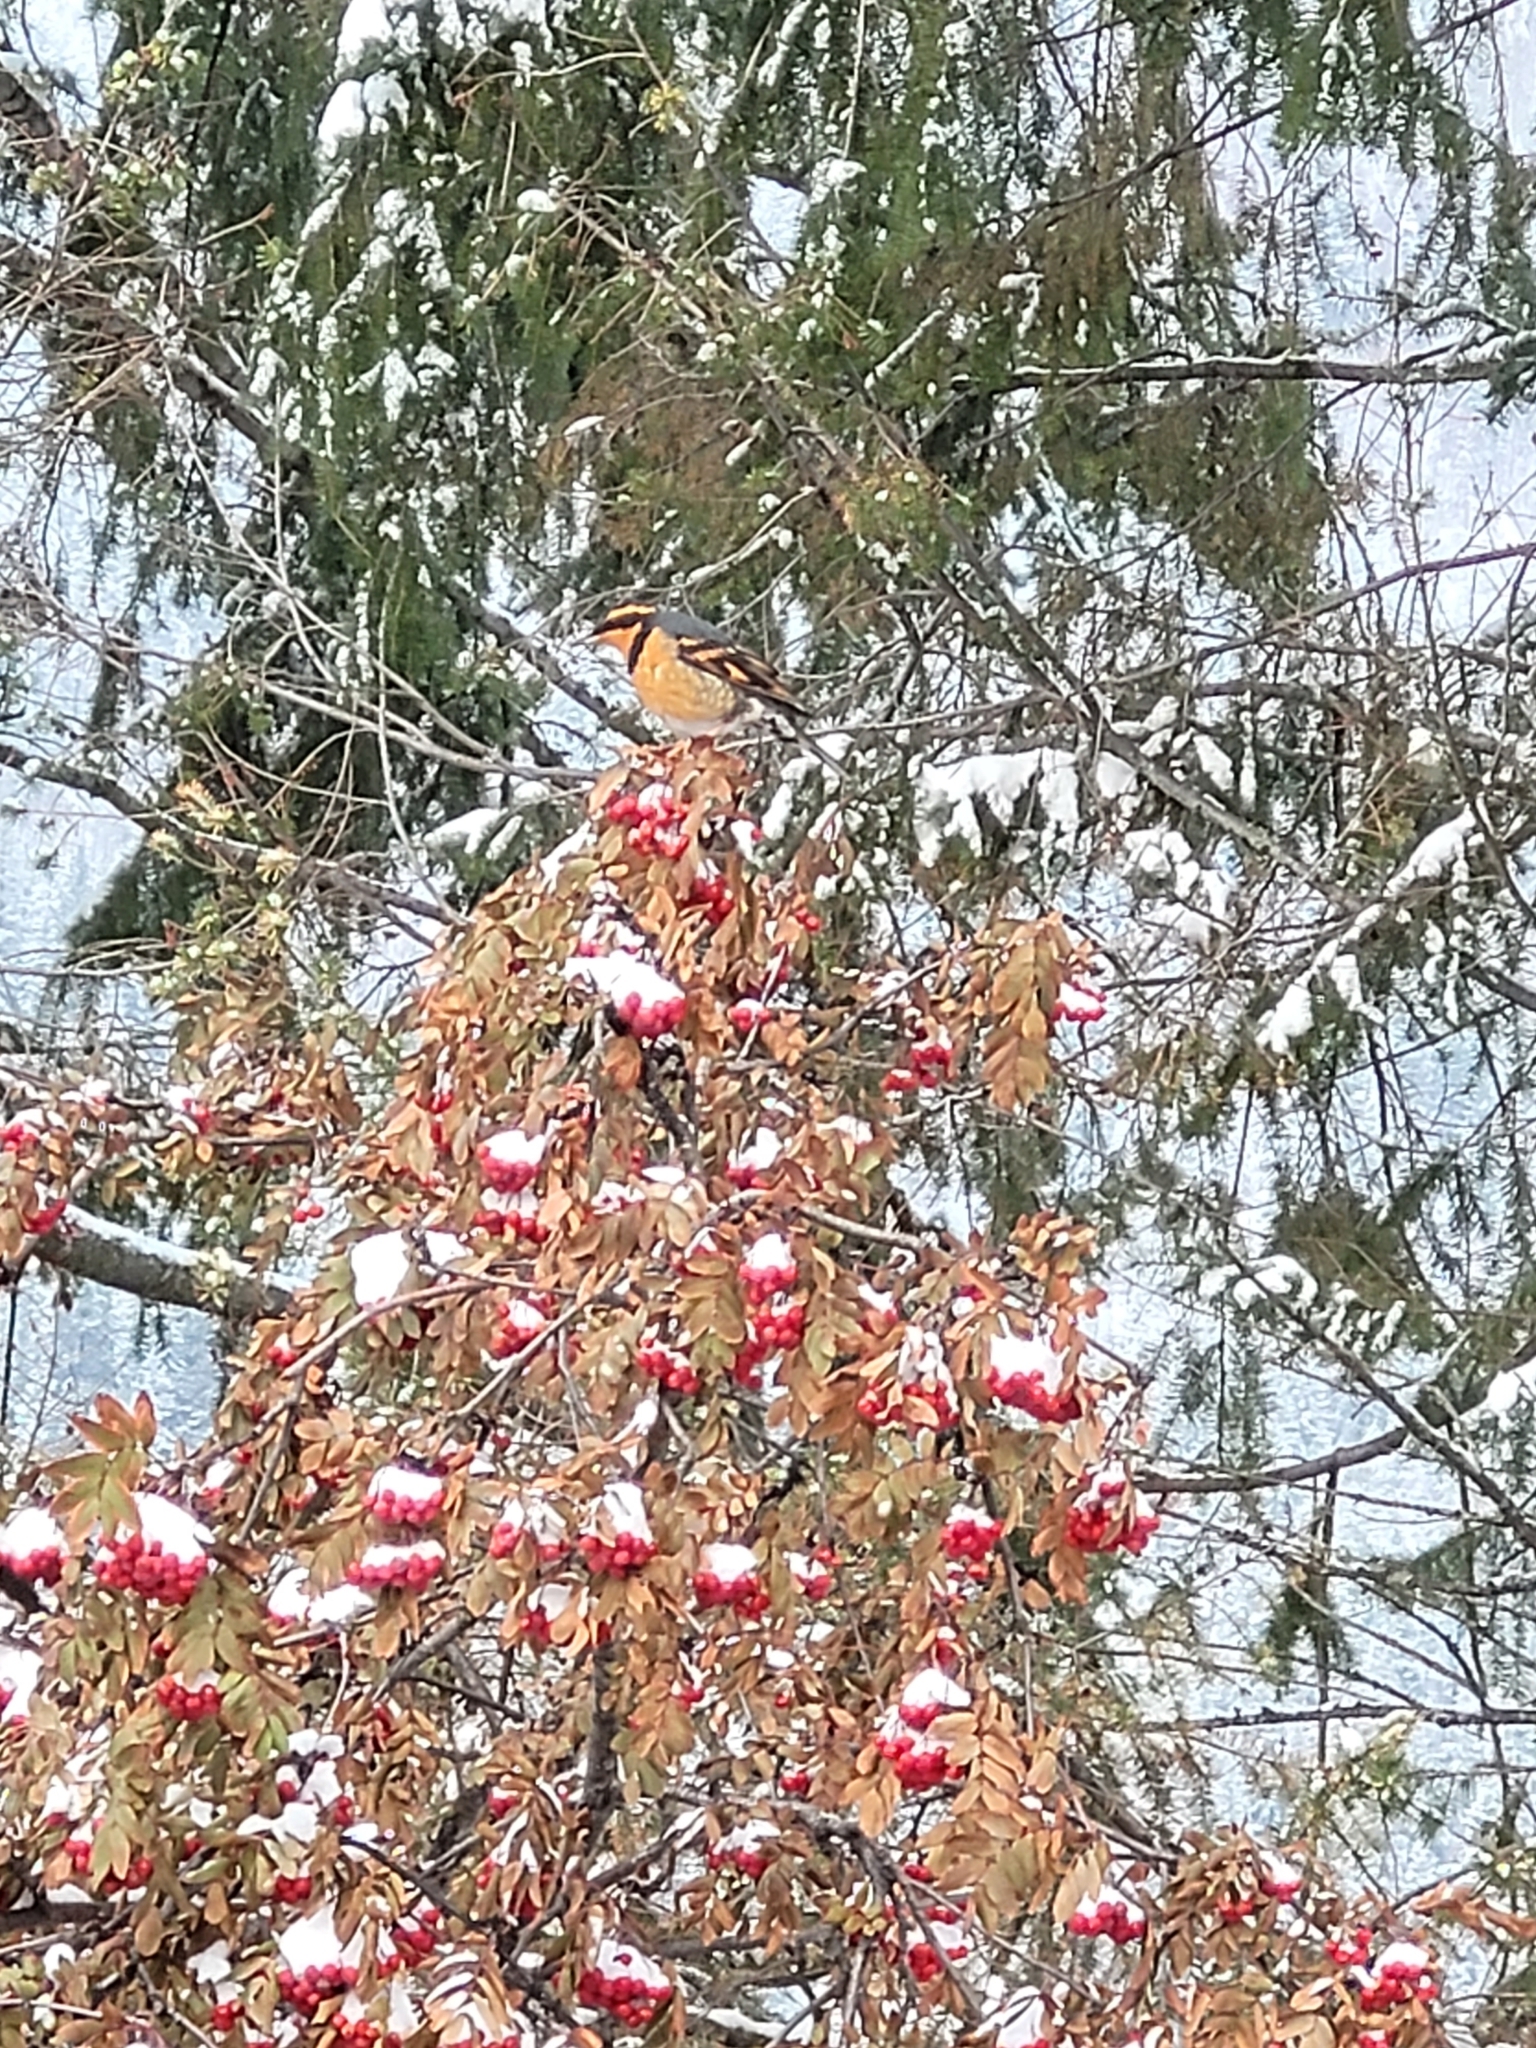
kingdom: Animalia
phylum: Chordata
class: Aves
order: Passeriformes
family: Turdidae
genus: Ixoreus
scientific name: Ixoreus naevius
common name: Varied thrush
